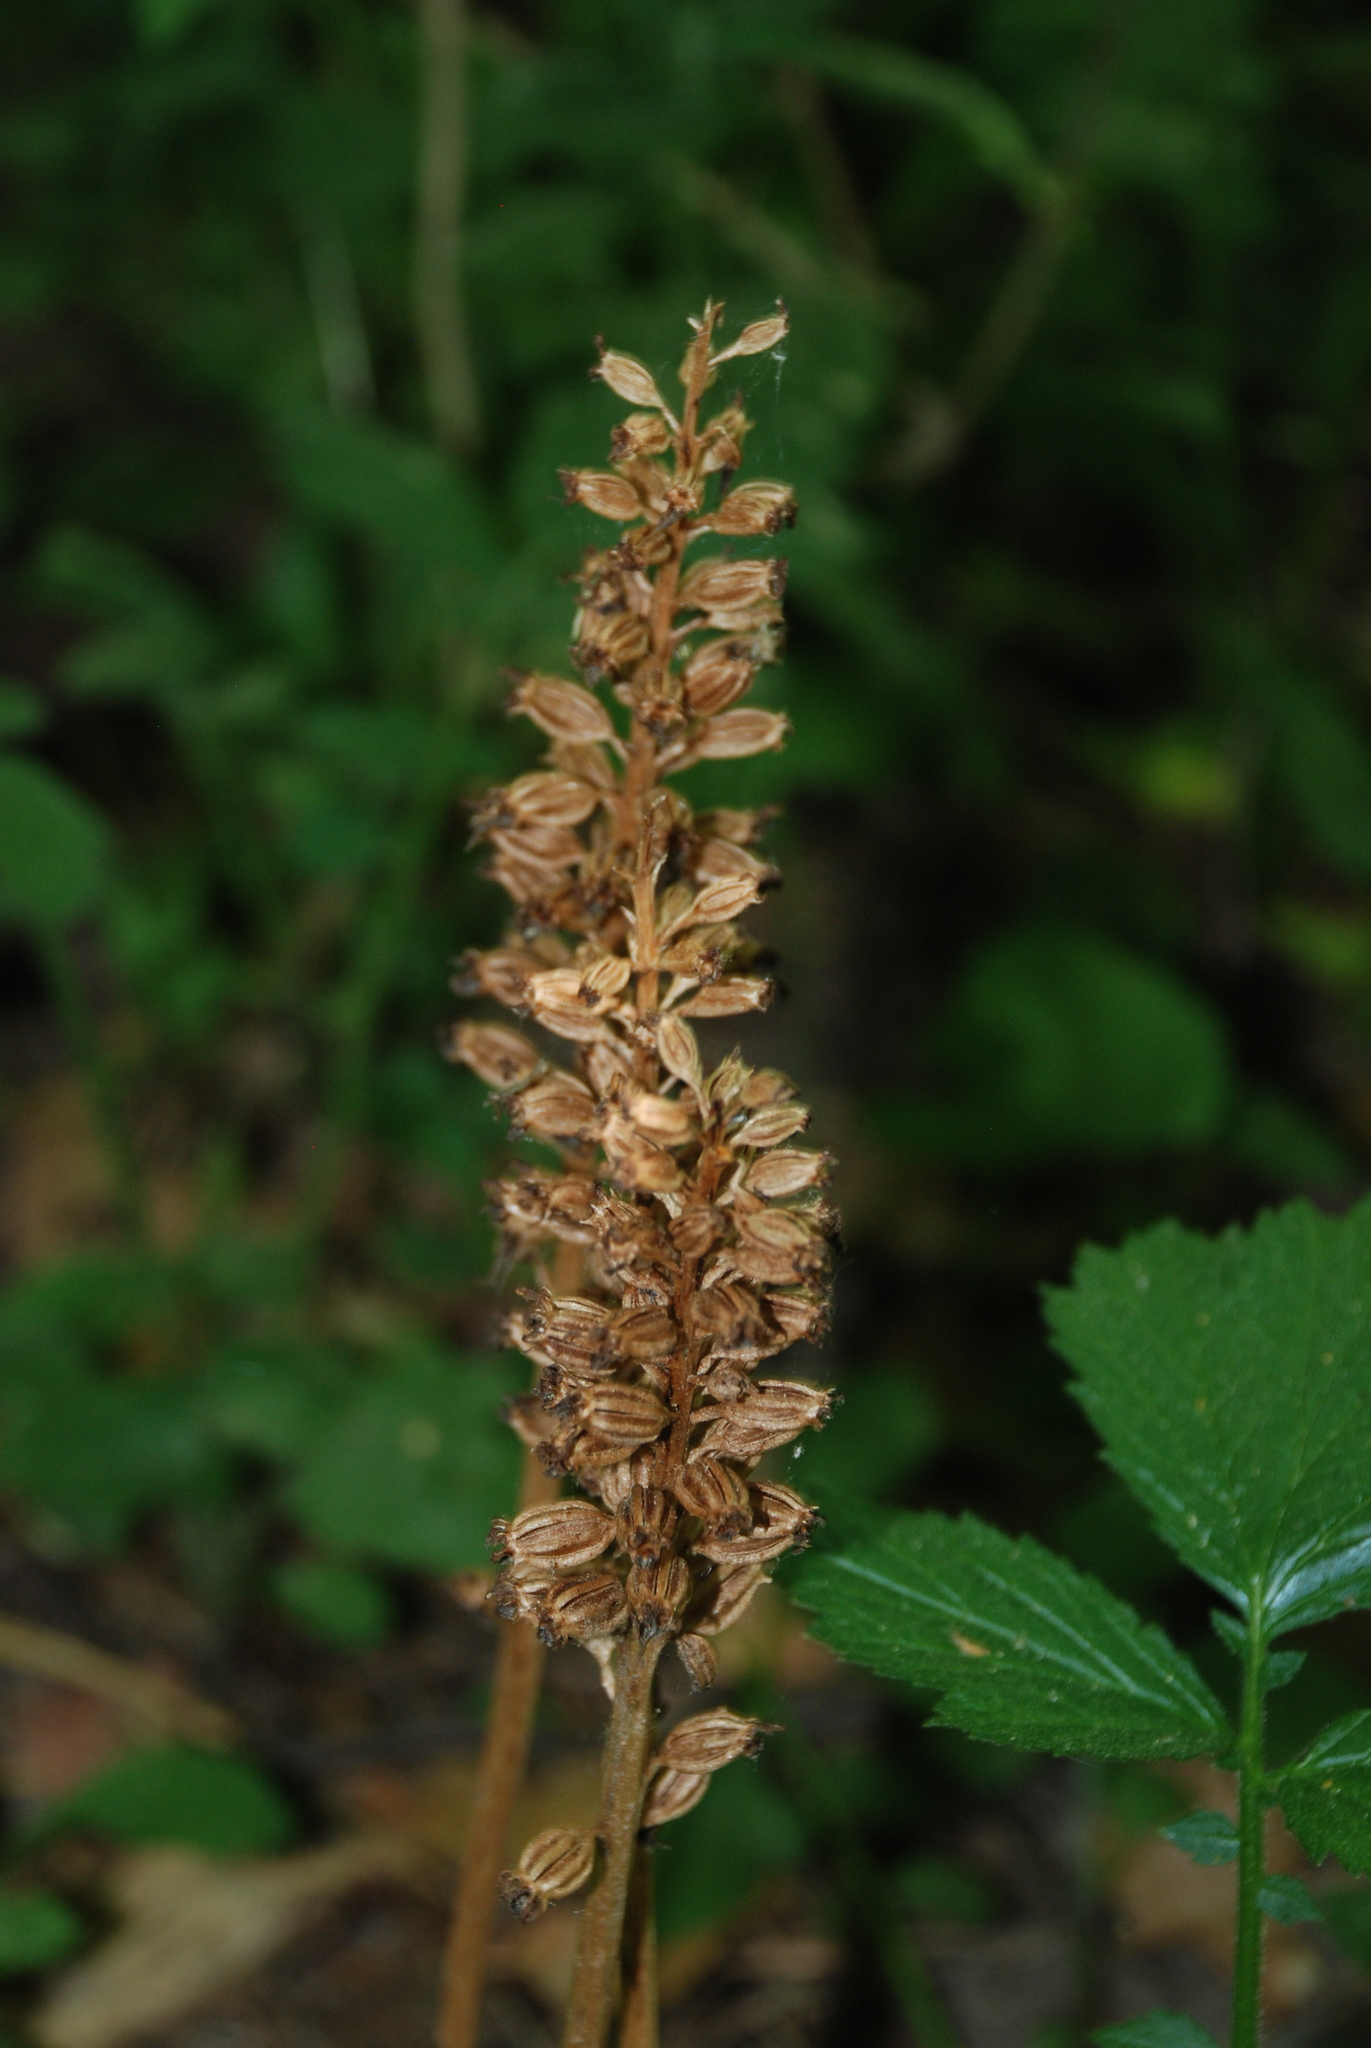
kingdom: Plantae
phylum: Tracheophyta
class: Liliopsida
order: Asparagales
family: Orchidaceae
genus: Neottia
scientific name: Neottia nidus-avis
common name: Bird's-nest orchid
